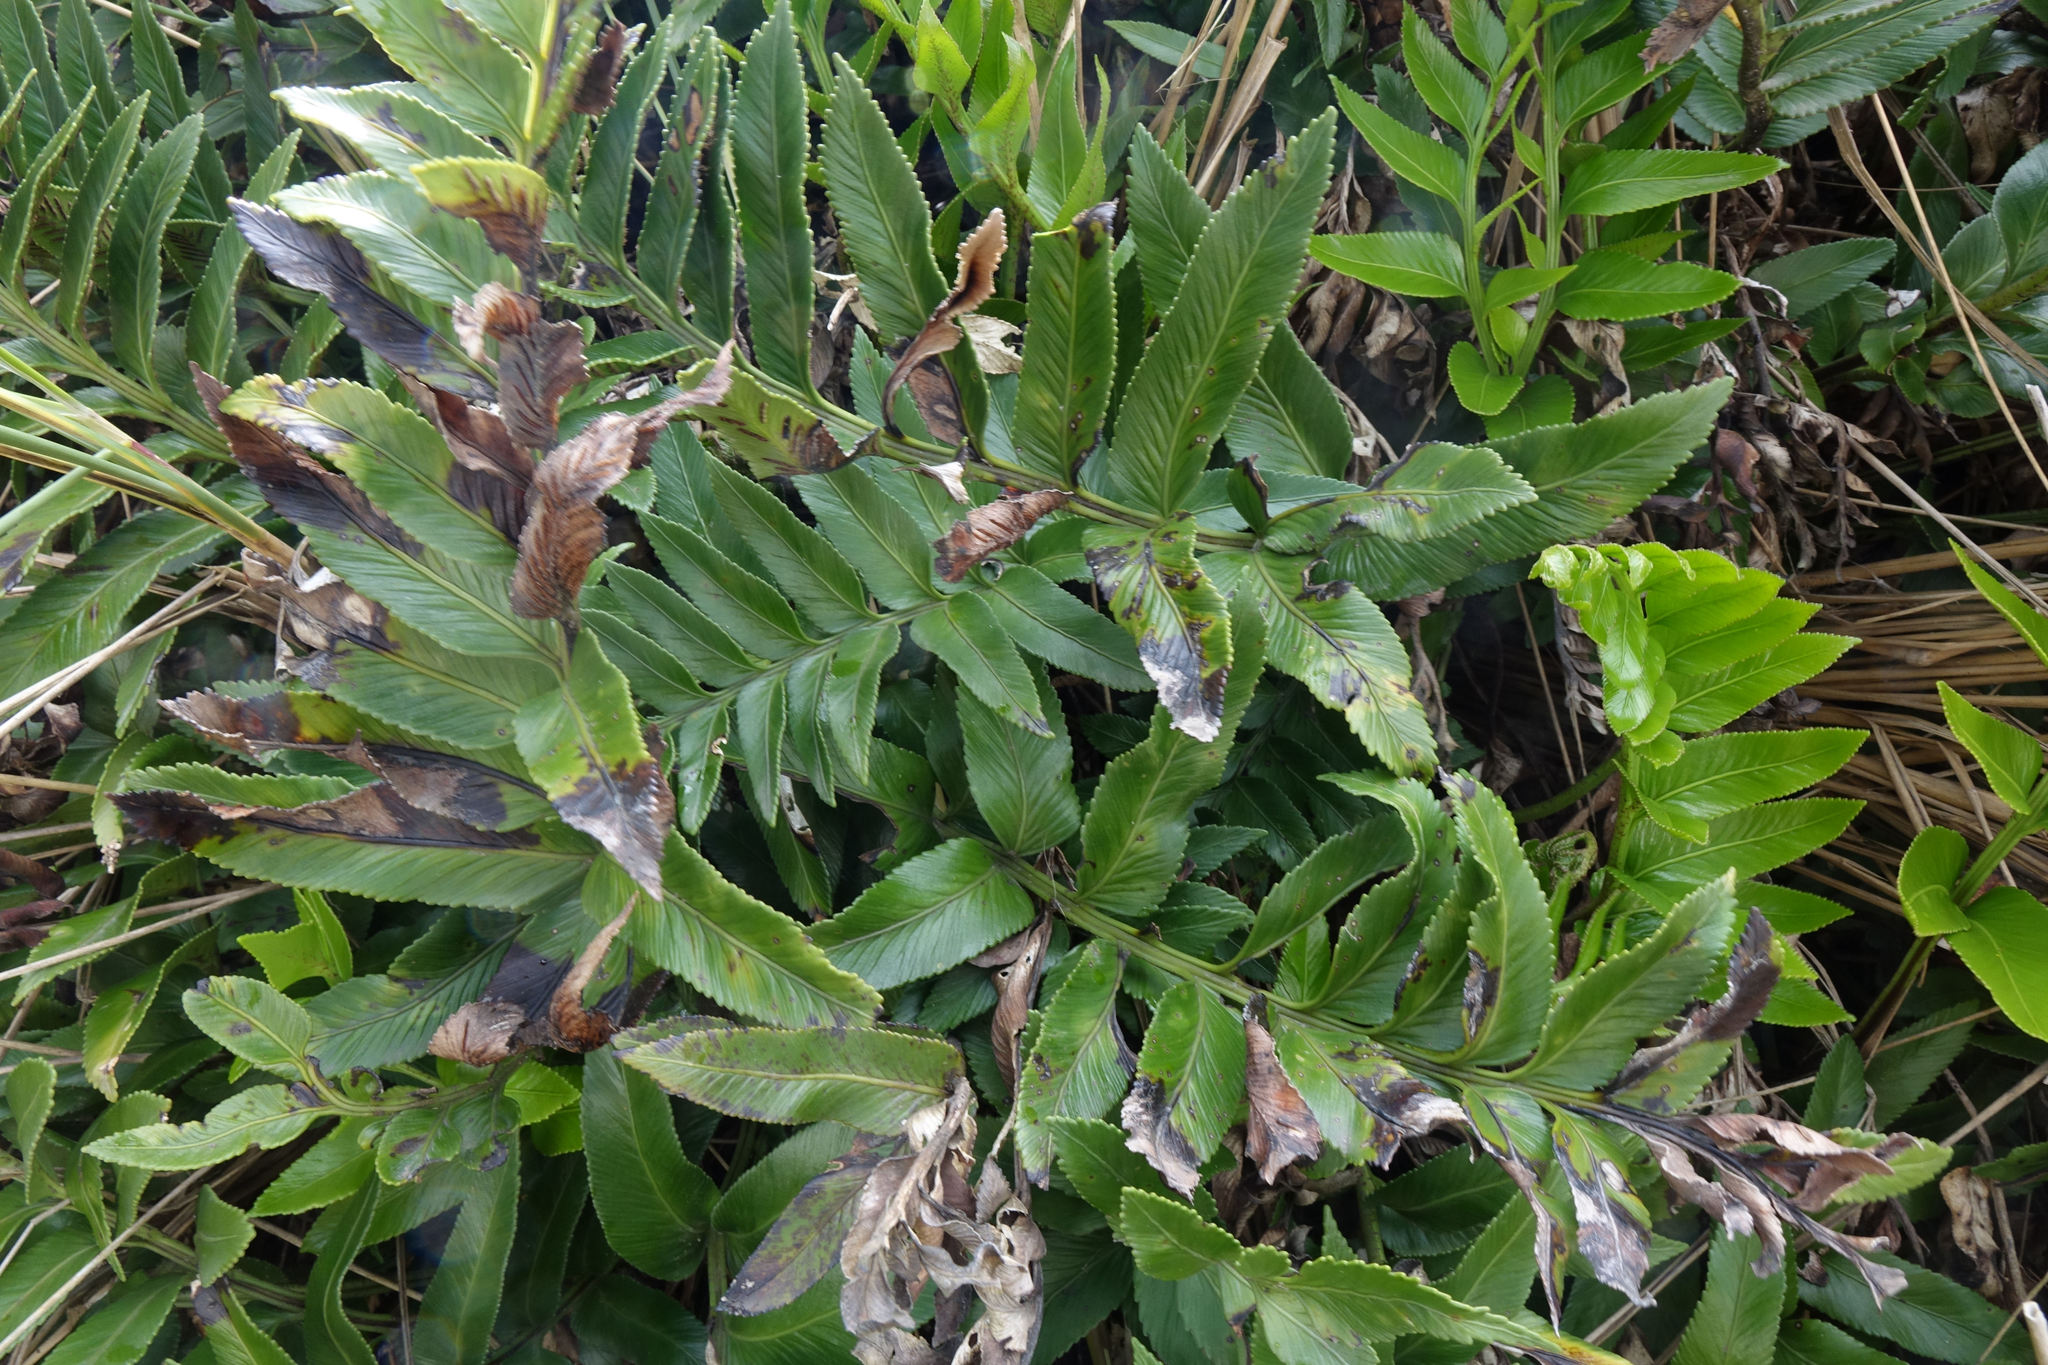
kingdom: Plantae
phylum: Tracheophyta
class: Polypodiopsida
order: Polypodiales
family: Aspleniaceae
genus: Asplenium
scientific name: Asplenium obtusatum
